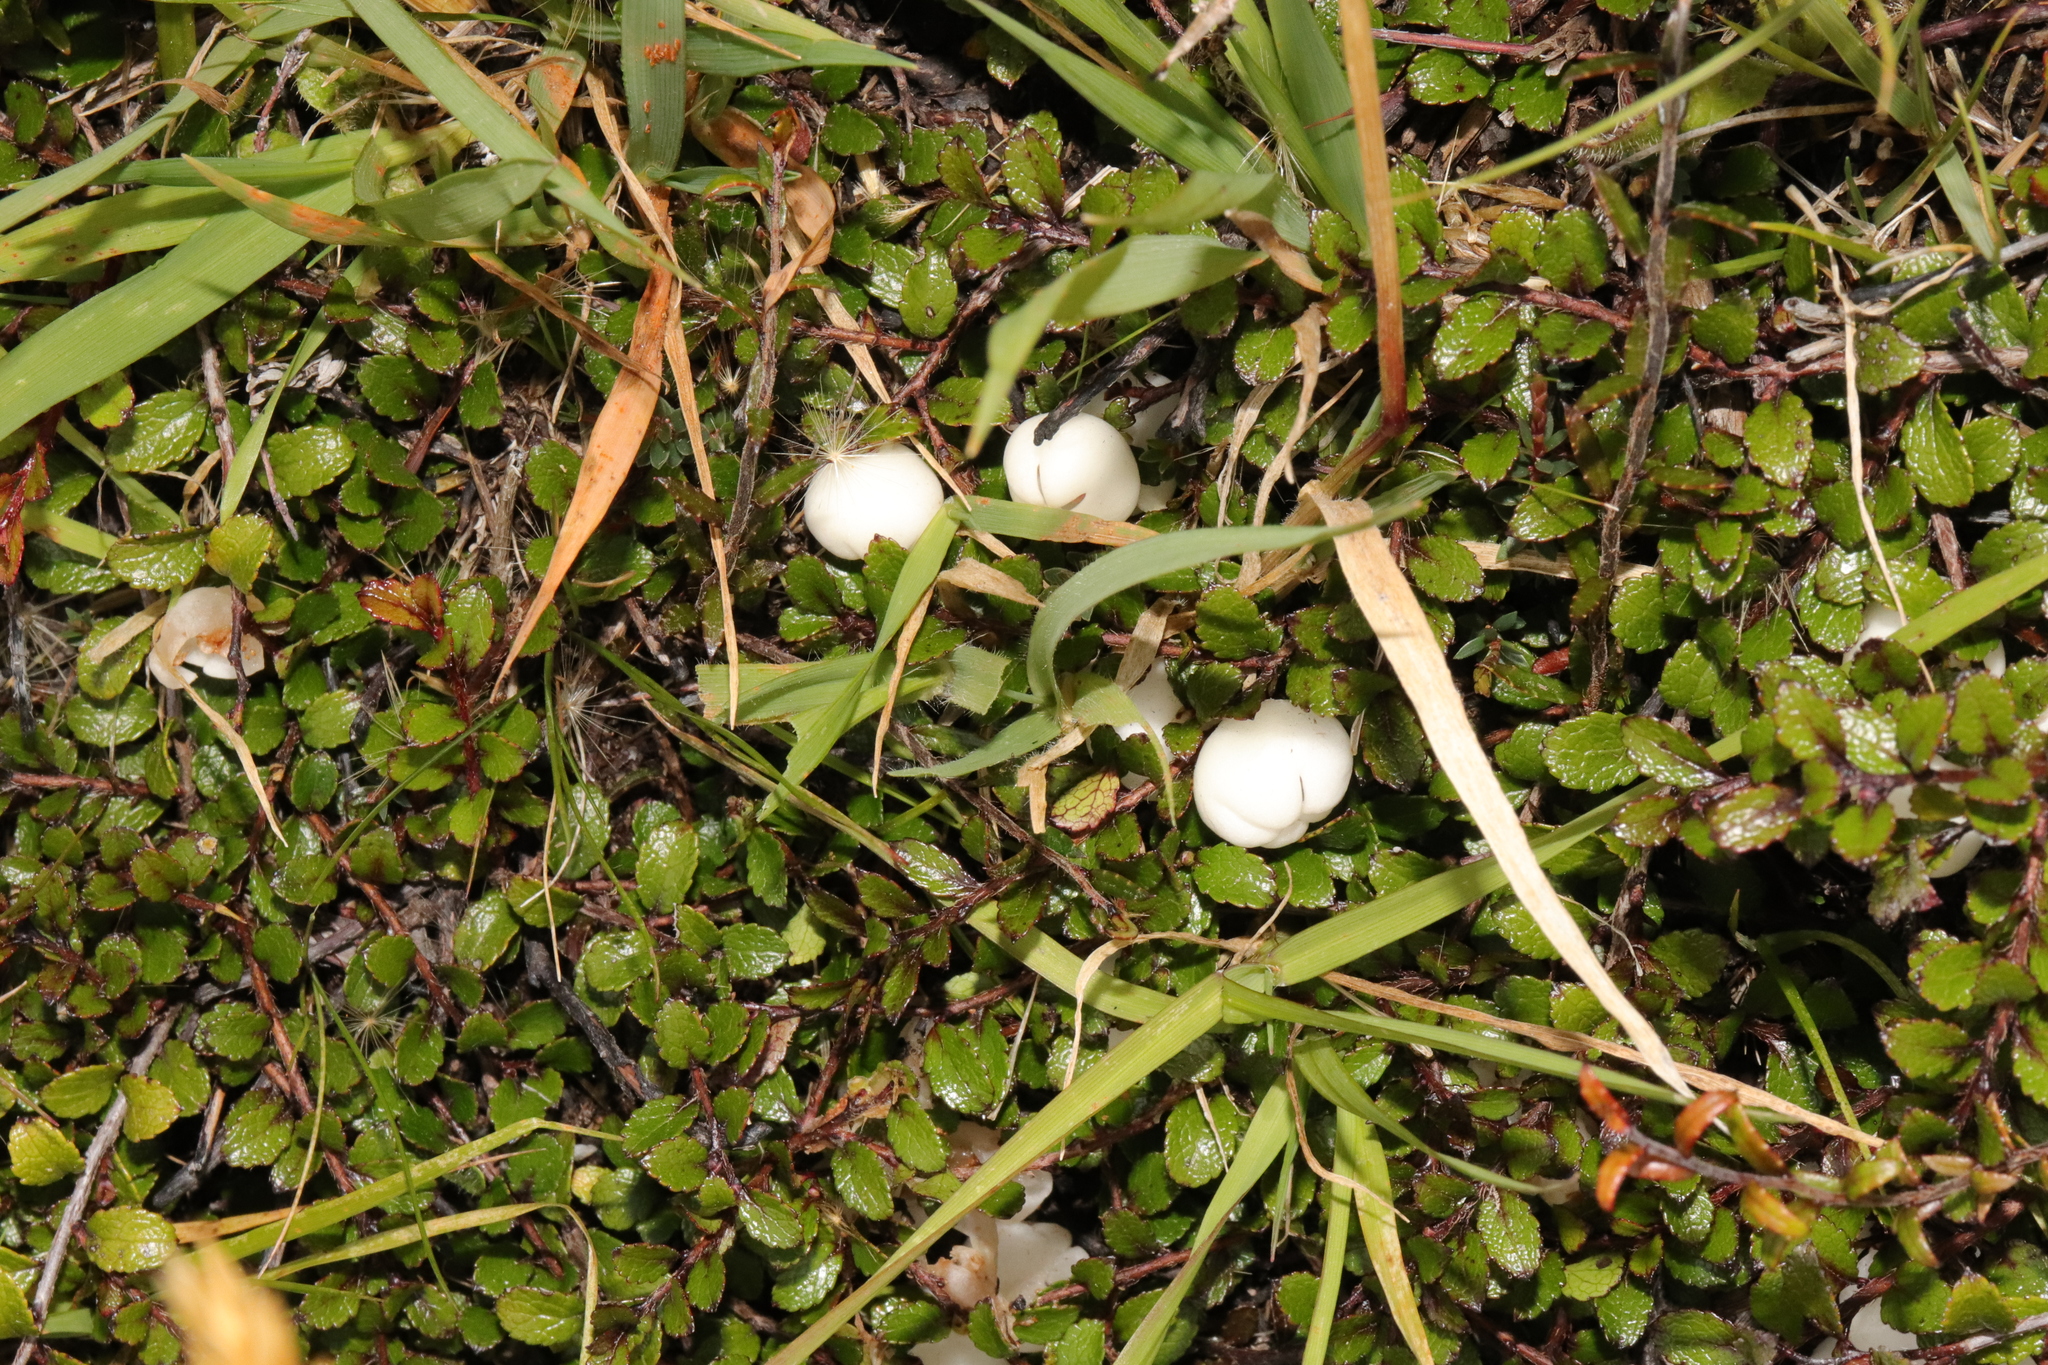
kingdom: Plantae
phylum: Tracheophyta
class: Magnoliopsida
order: Ericales
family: Ericaceae
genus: Gaultheria
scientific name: Gaultheria depressa
